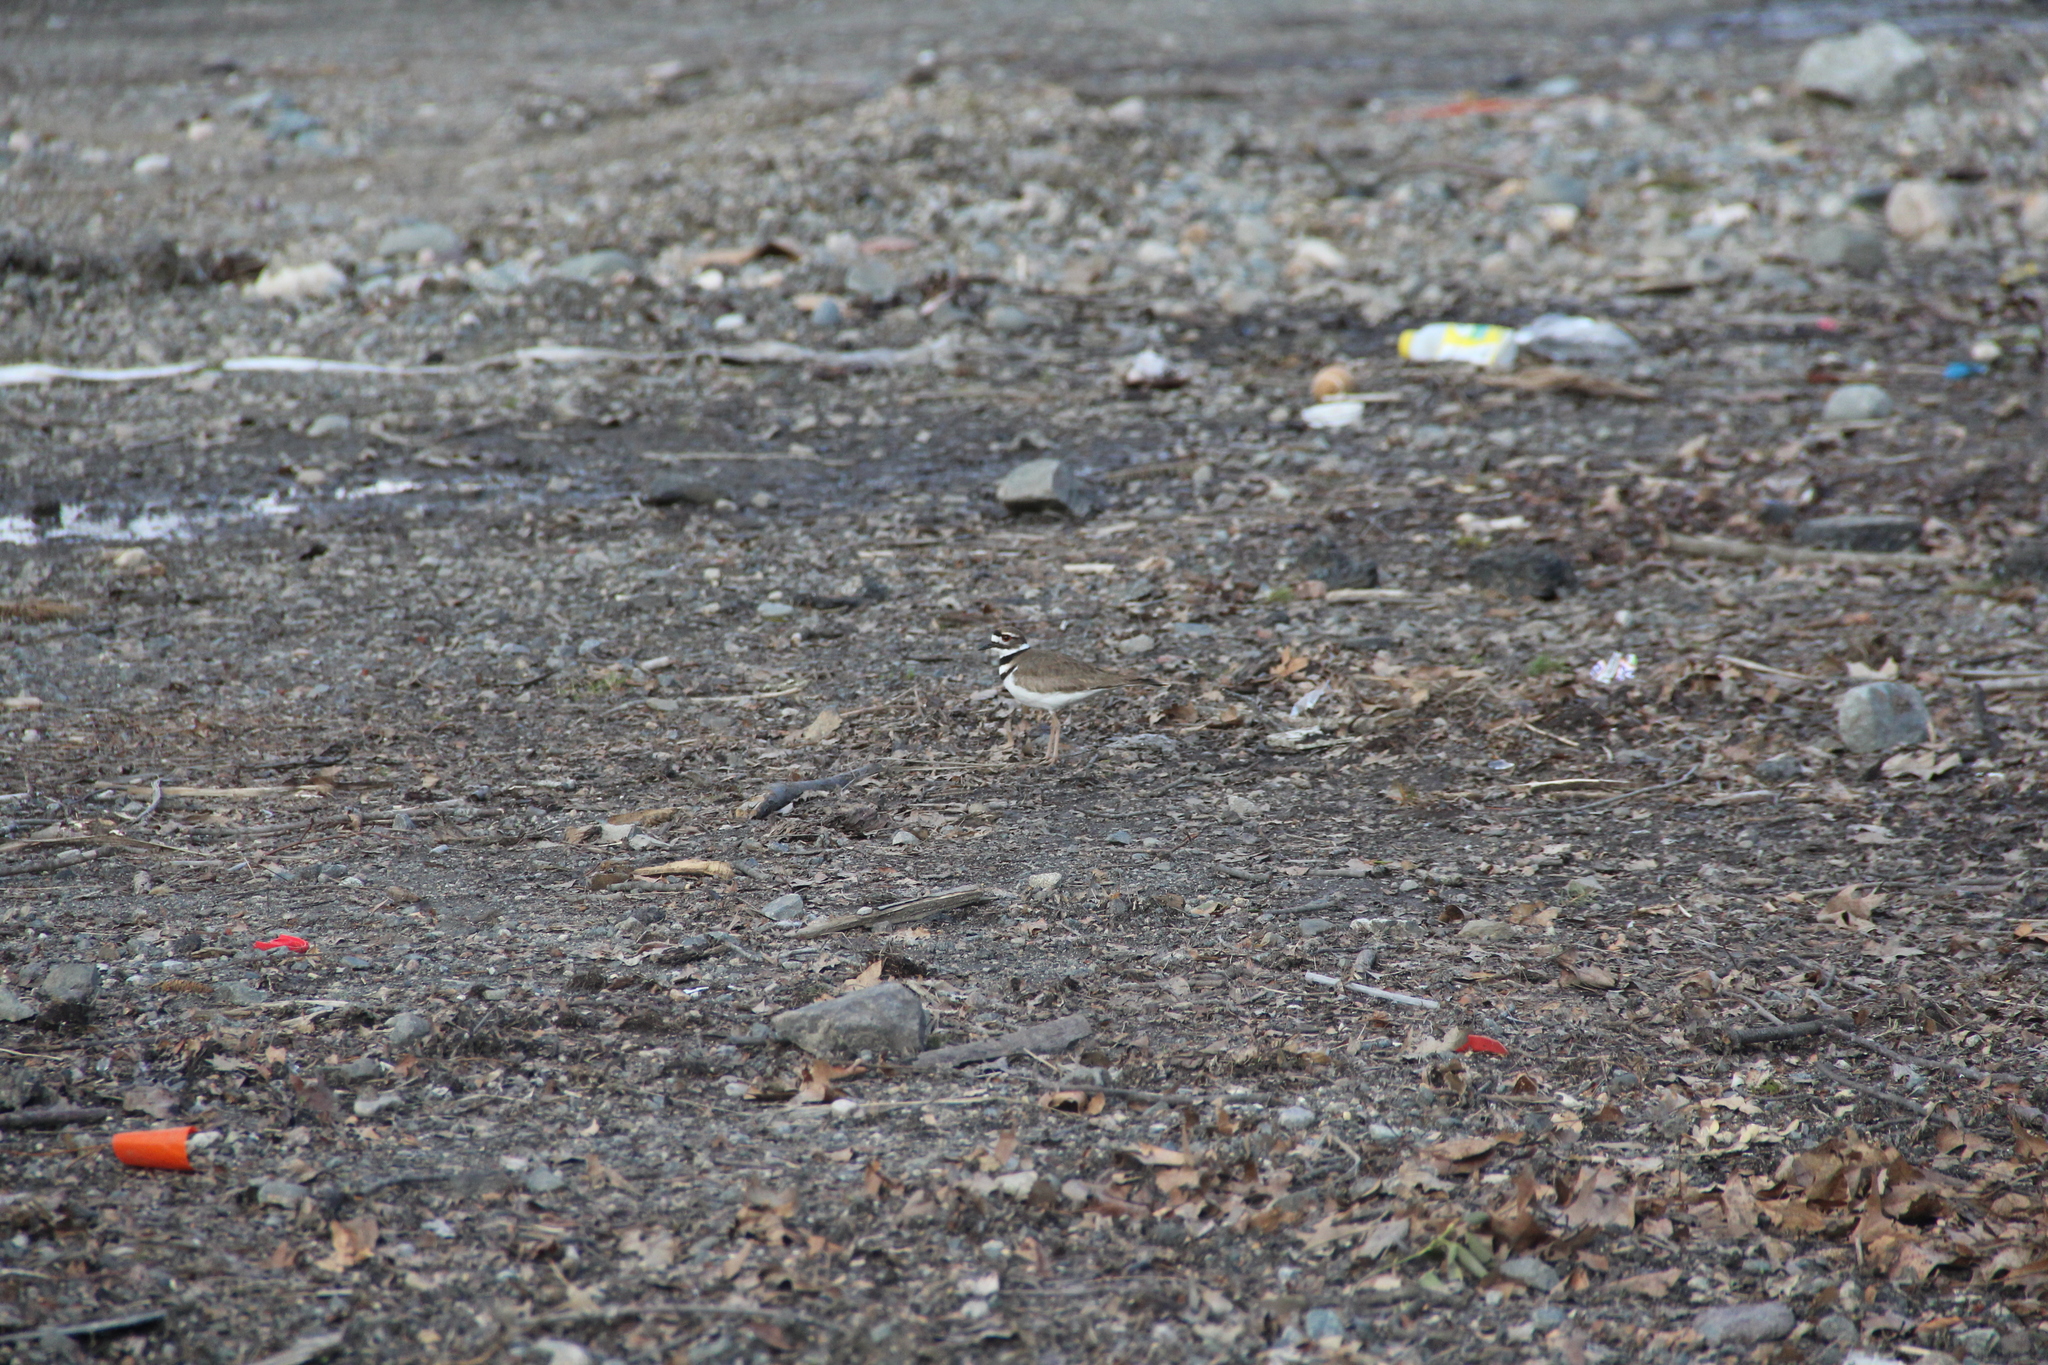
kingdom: Animalia
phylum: Chordata
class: Aves
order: Charadriiformes
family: Charadriidae
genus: Charadrius
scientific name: Charadrius vociferus
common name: Killdeer
